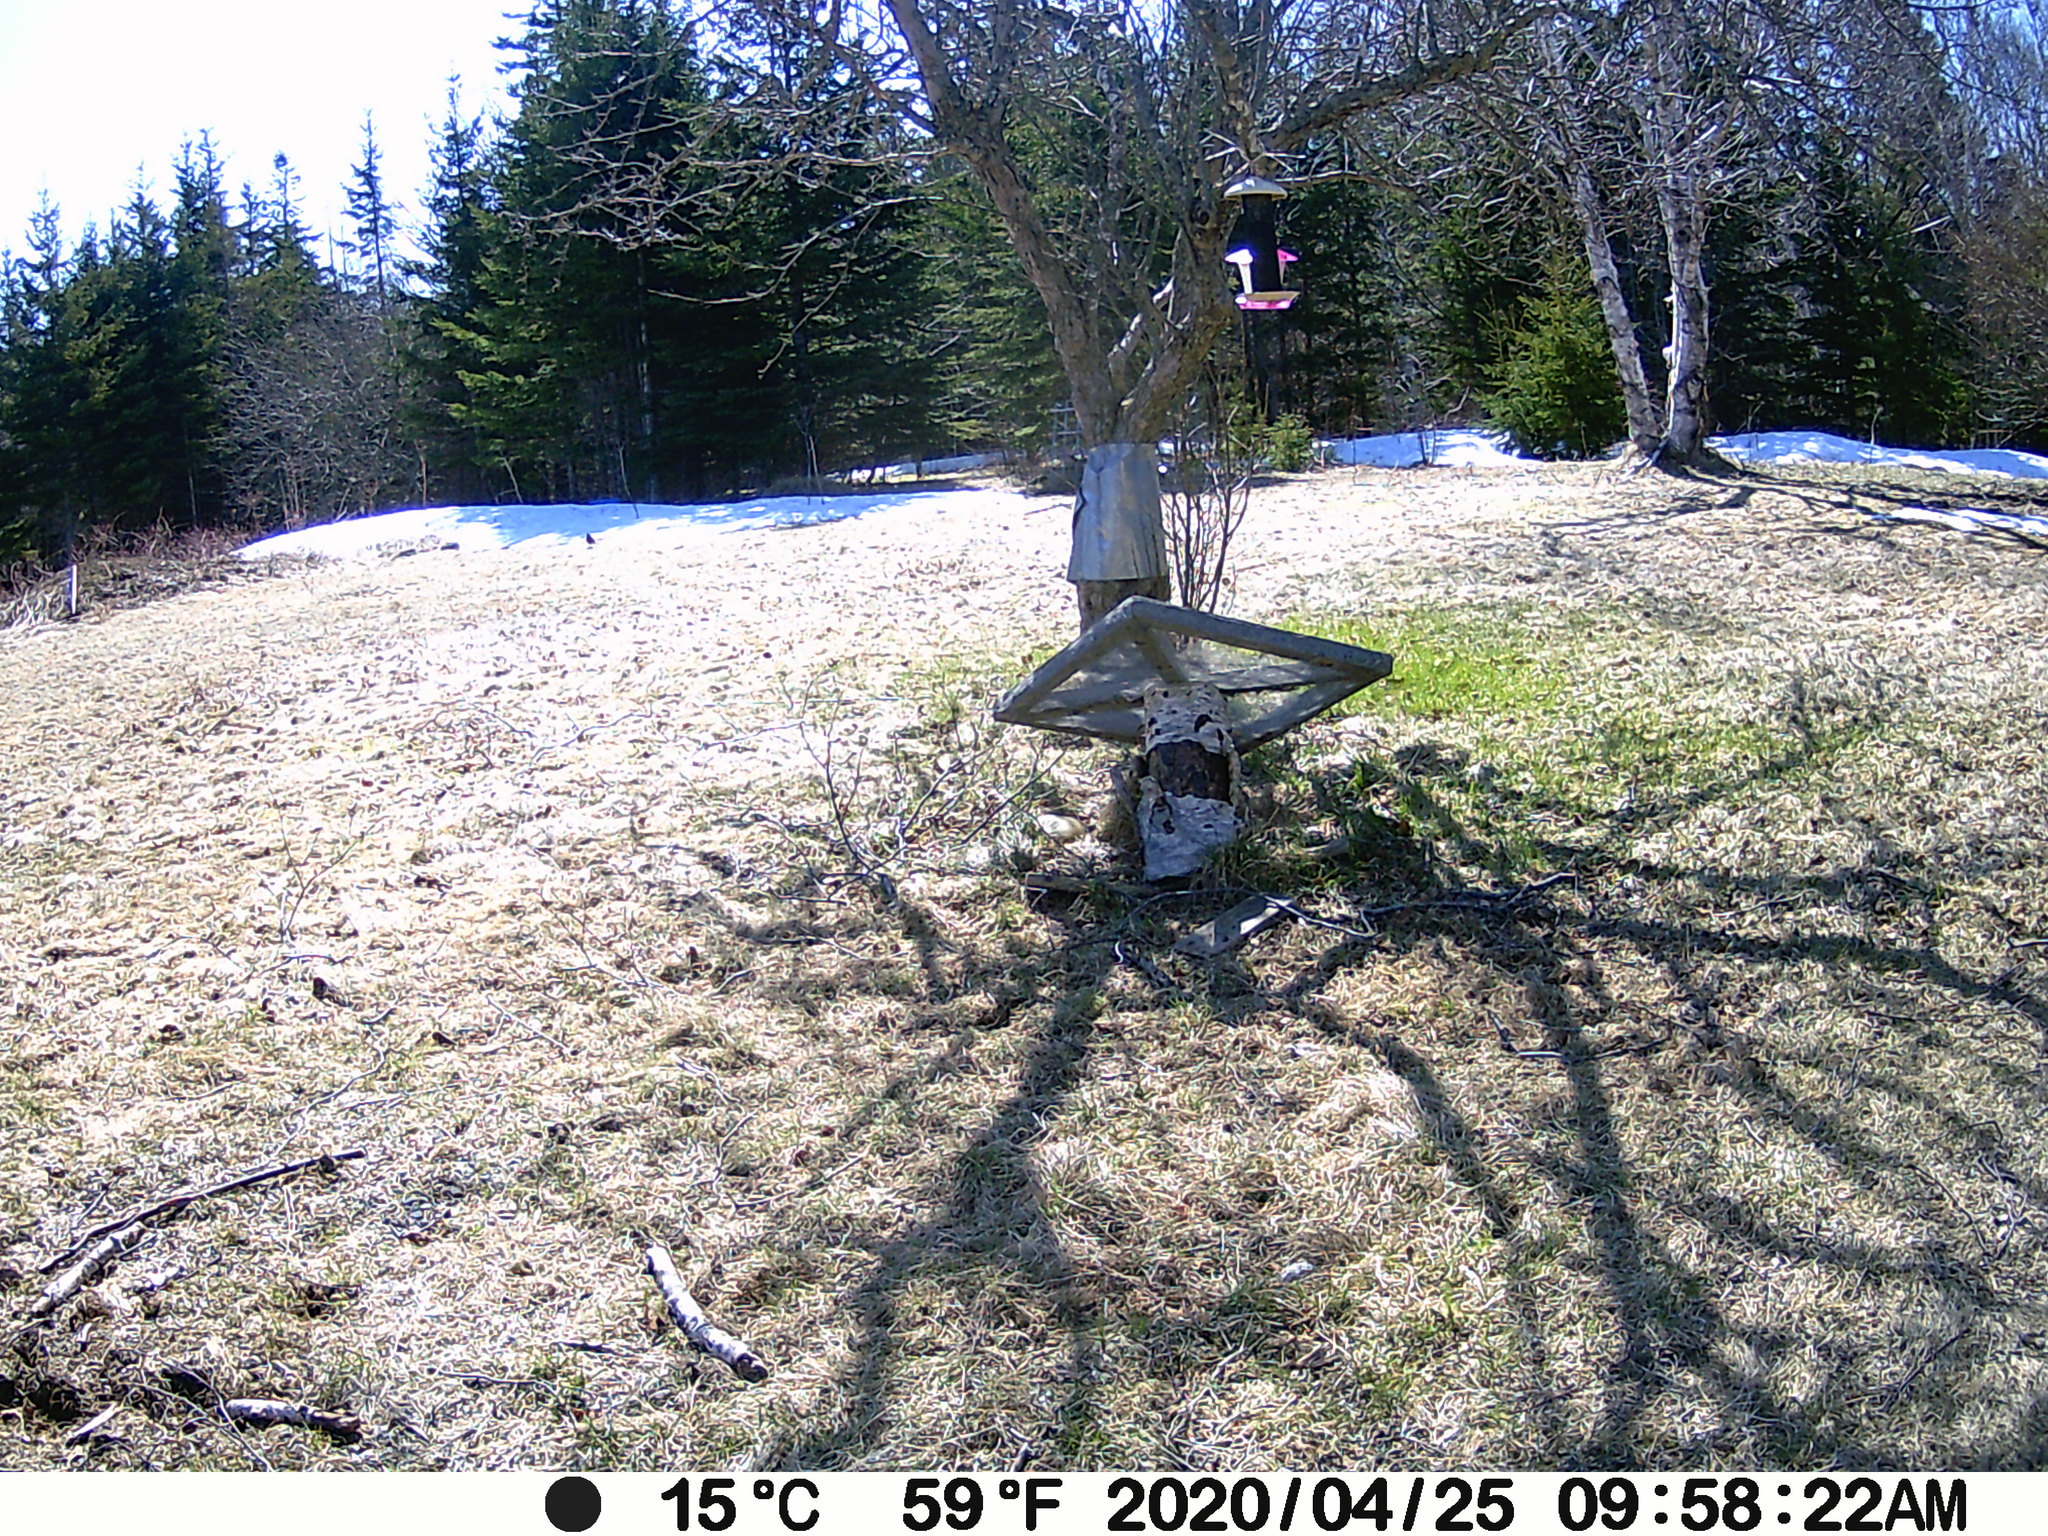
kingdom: Animalia
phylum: Chordata
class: Aves
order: Passeriformes
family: Turdidae
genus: Turdus
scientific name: Turdus migratorius
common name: American robin
